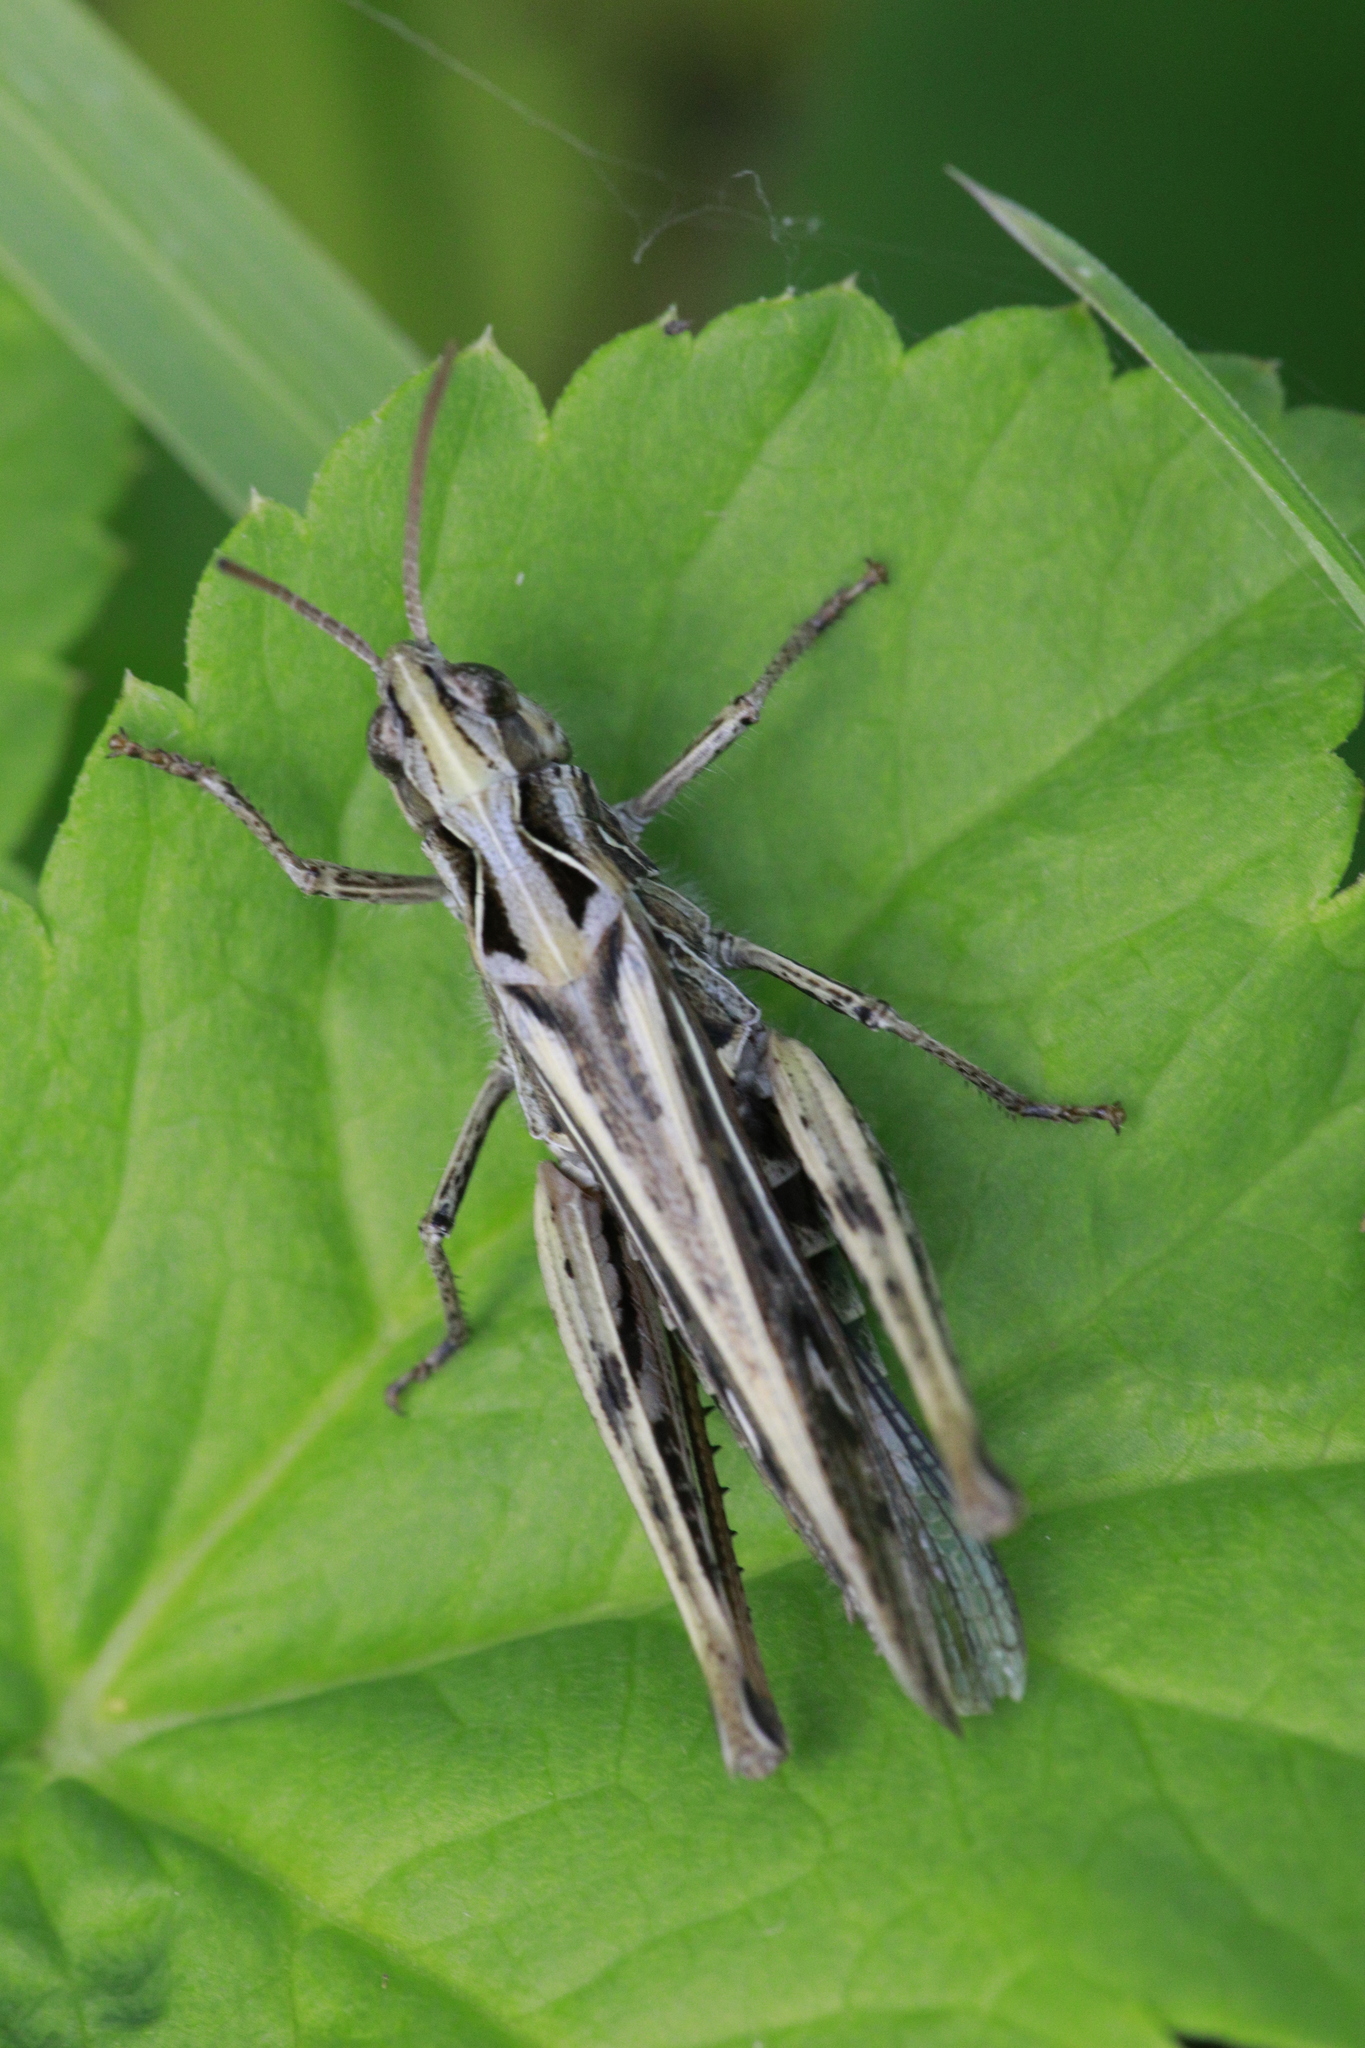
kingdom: Animalia
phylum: Arthropoda
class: Insecta
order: Orthoptera
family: Acrididae
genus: Chorthippus
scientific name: Chorthippus brunneus
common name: Field grasshopper
